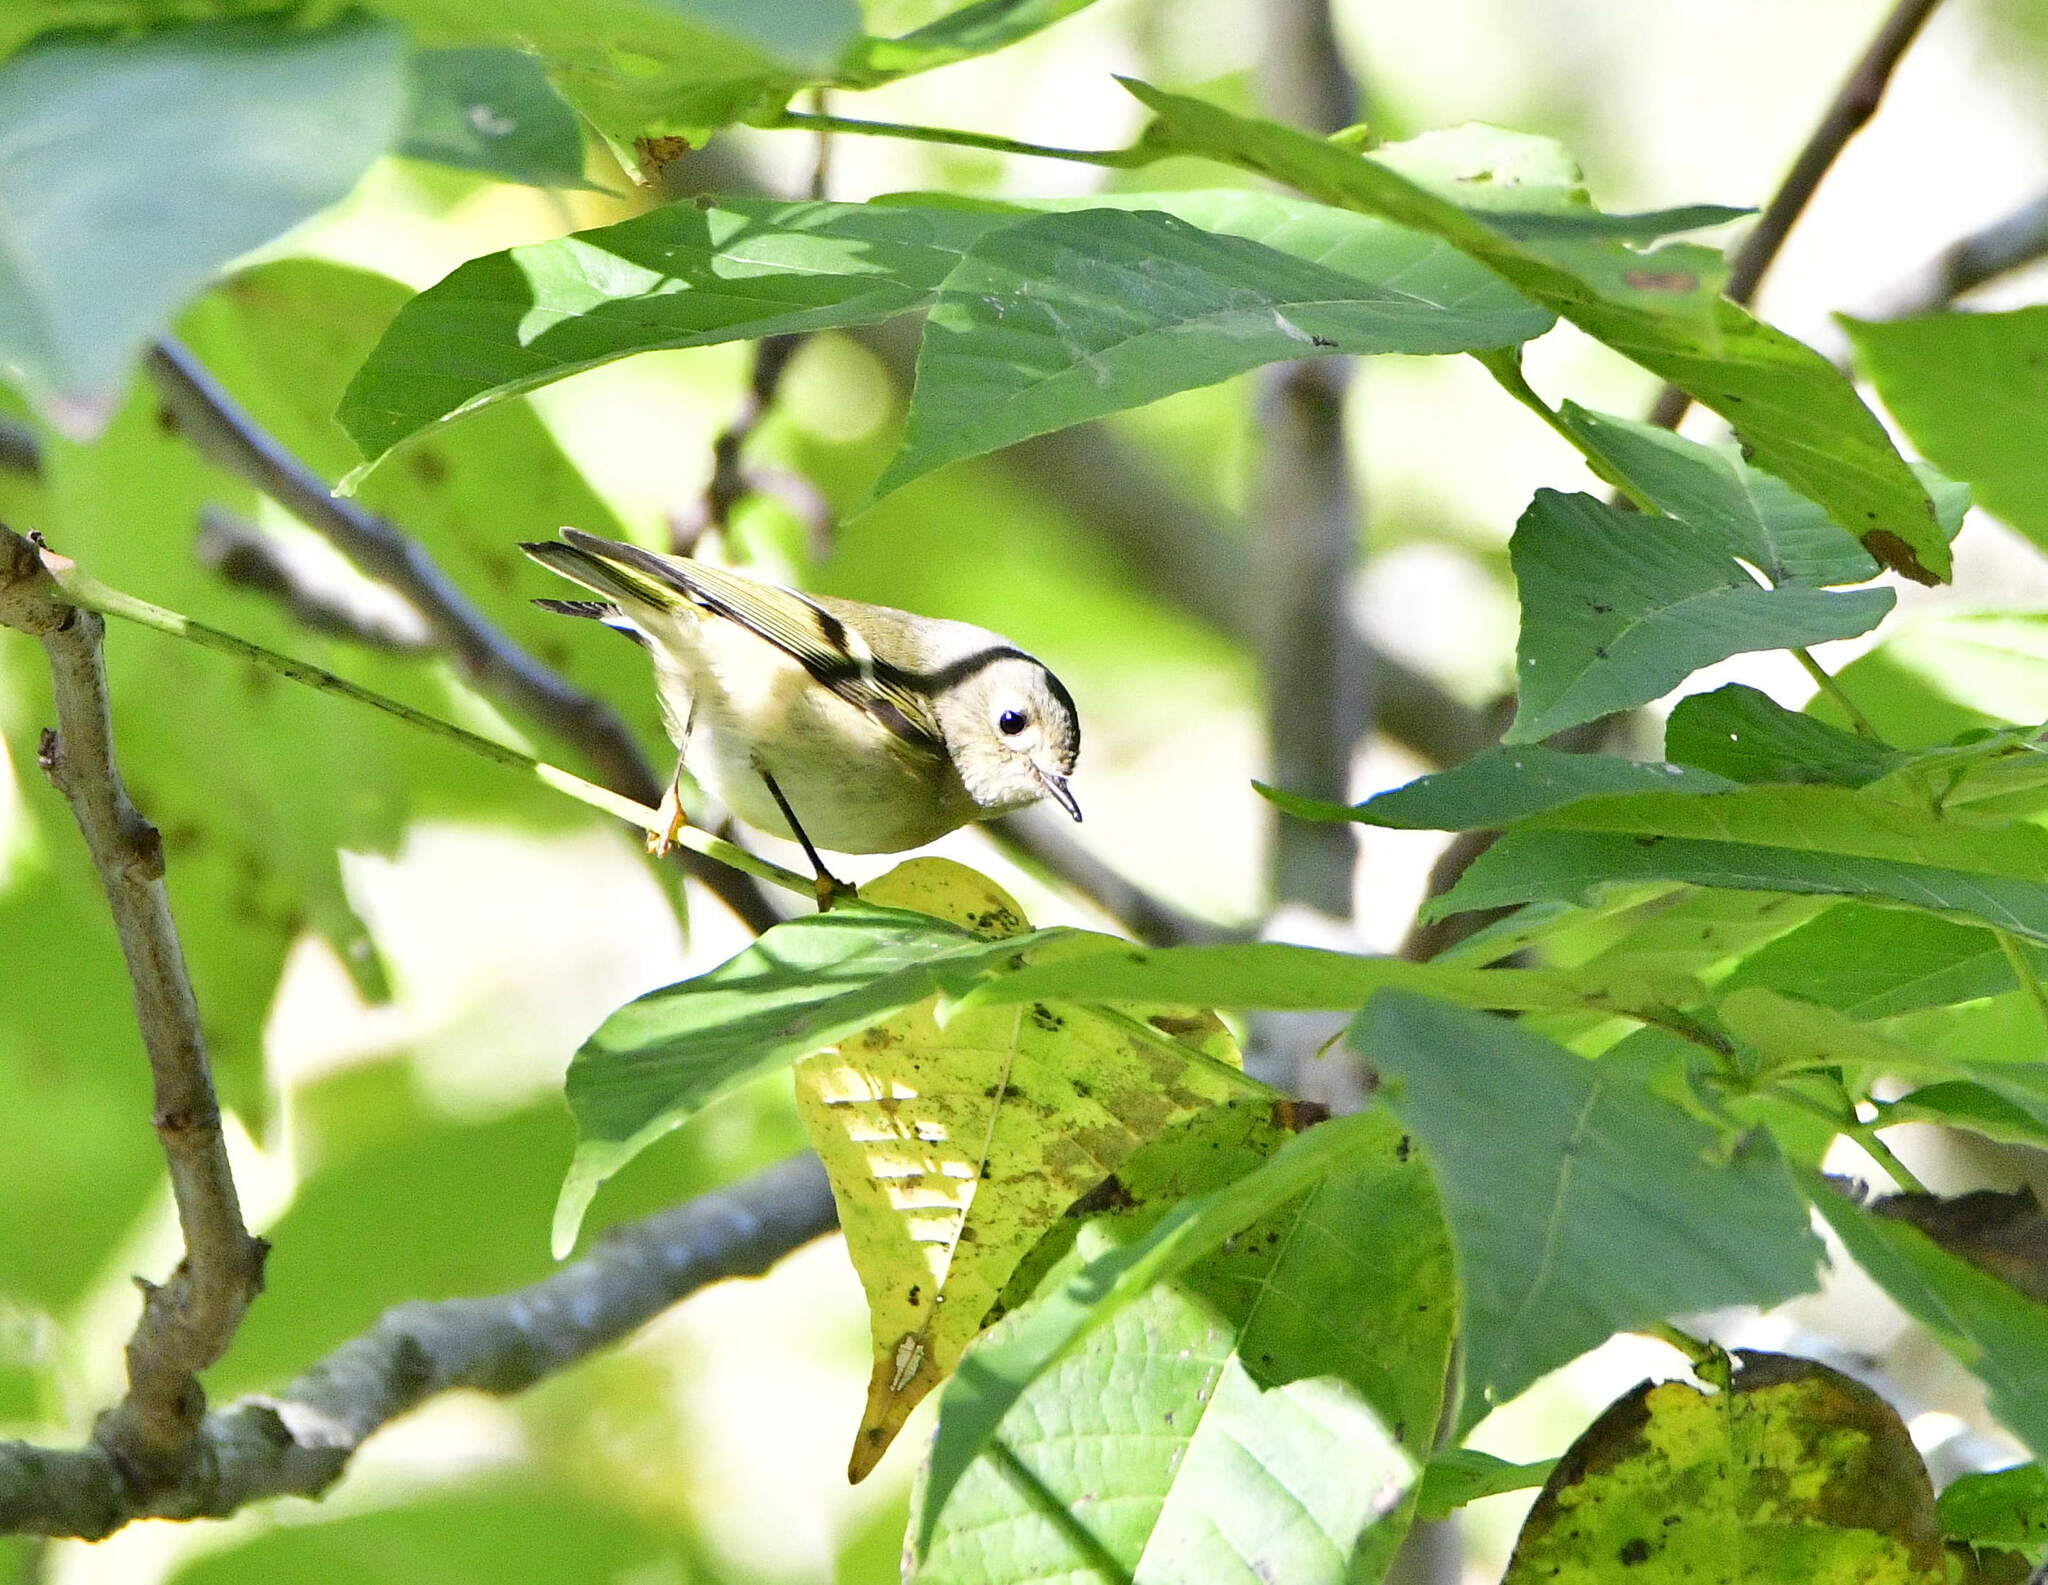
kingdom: Animalia
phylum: Chordata
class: Aves
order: Passeriformes
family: Regulidae
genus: Regulus
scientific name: Regulus calendula
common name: Ruby-crowned kinglet
